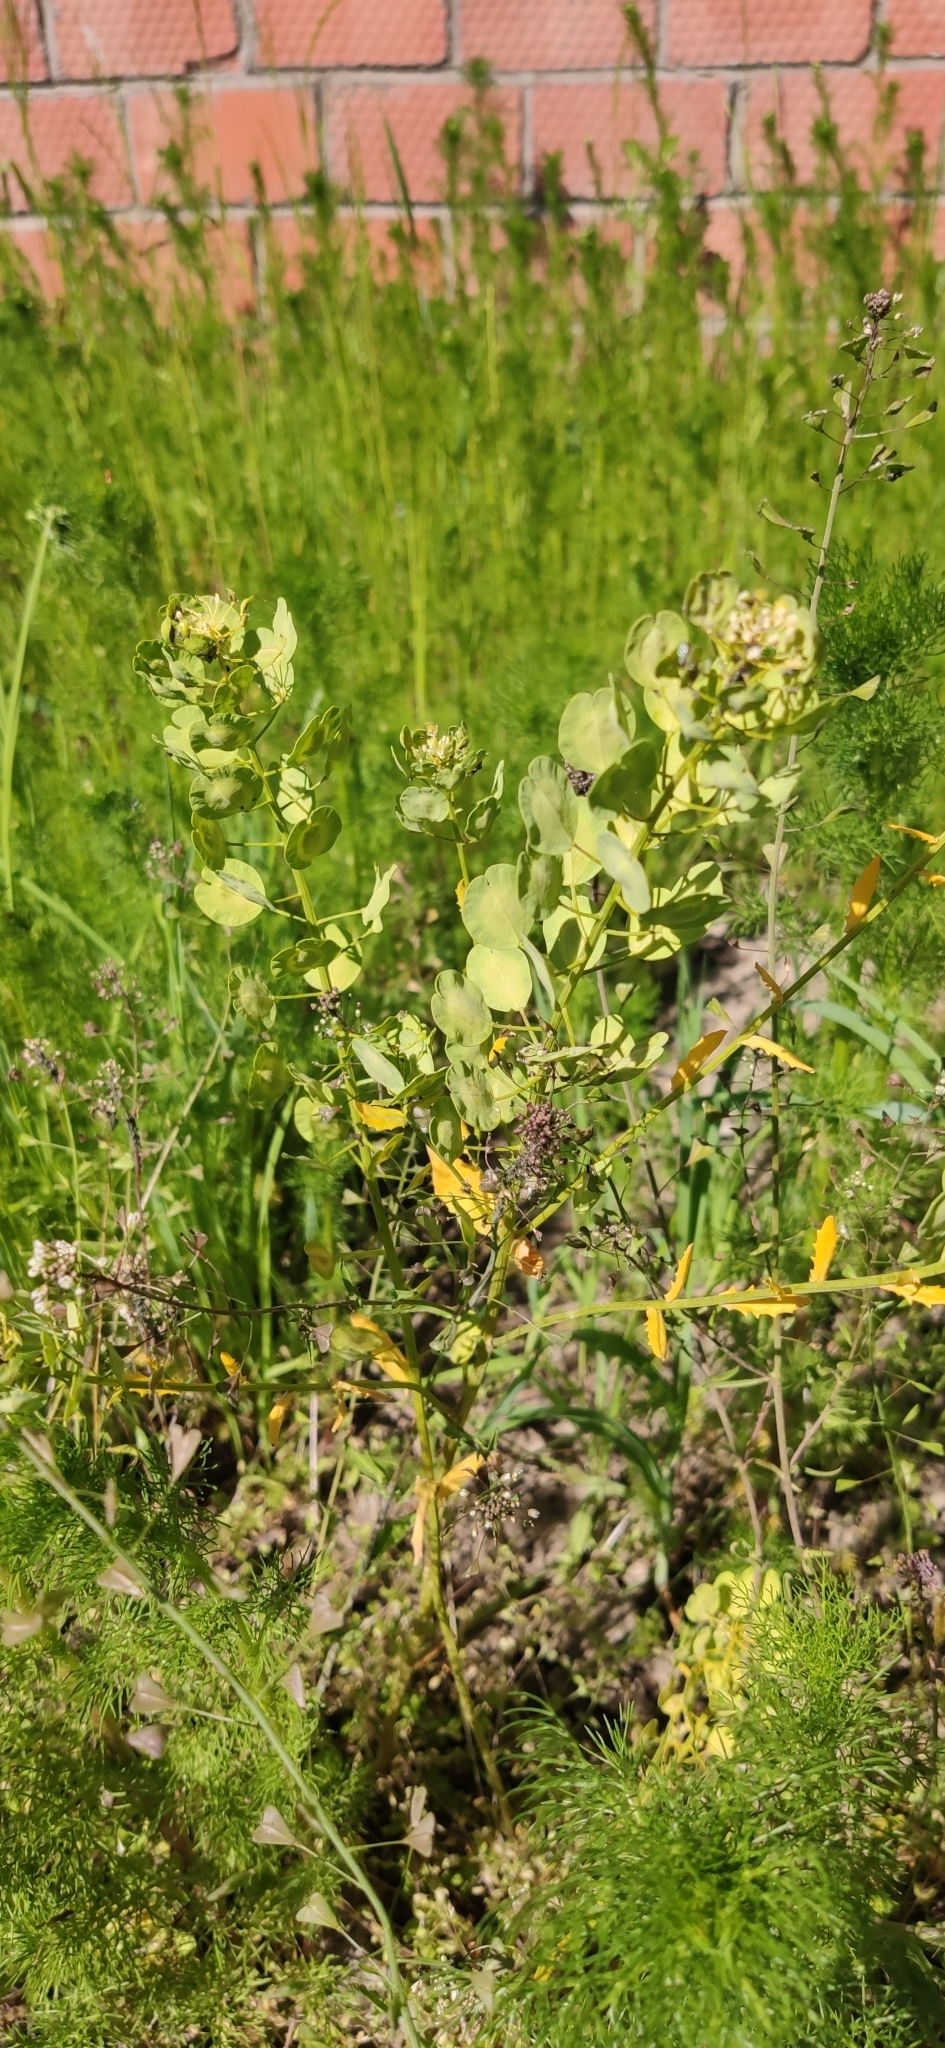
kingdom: Plantae
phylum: Tracheophyta
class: Magnoliopsida
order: Brassicales
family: Brassicaceae
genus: Thlaspi
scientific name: Thlaspi arvense
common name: Field pennycress
